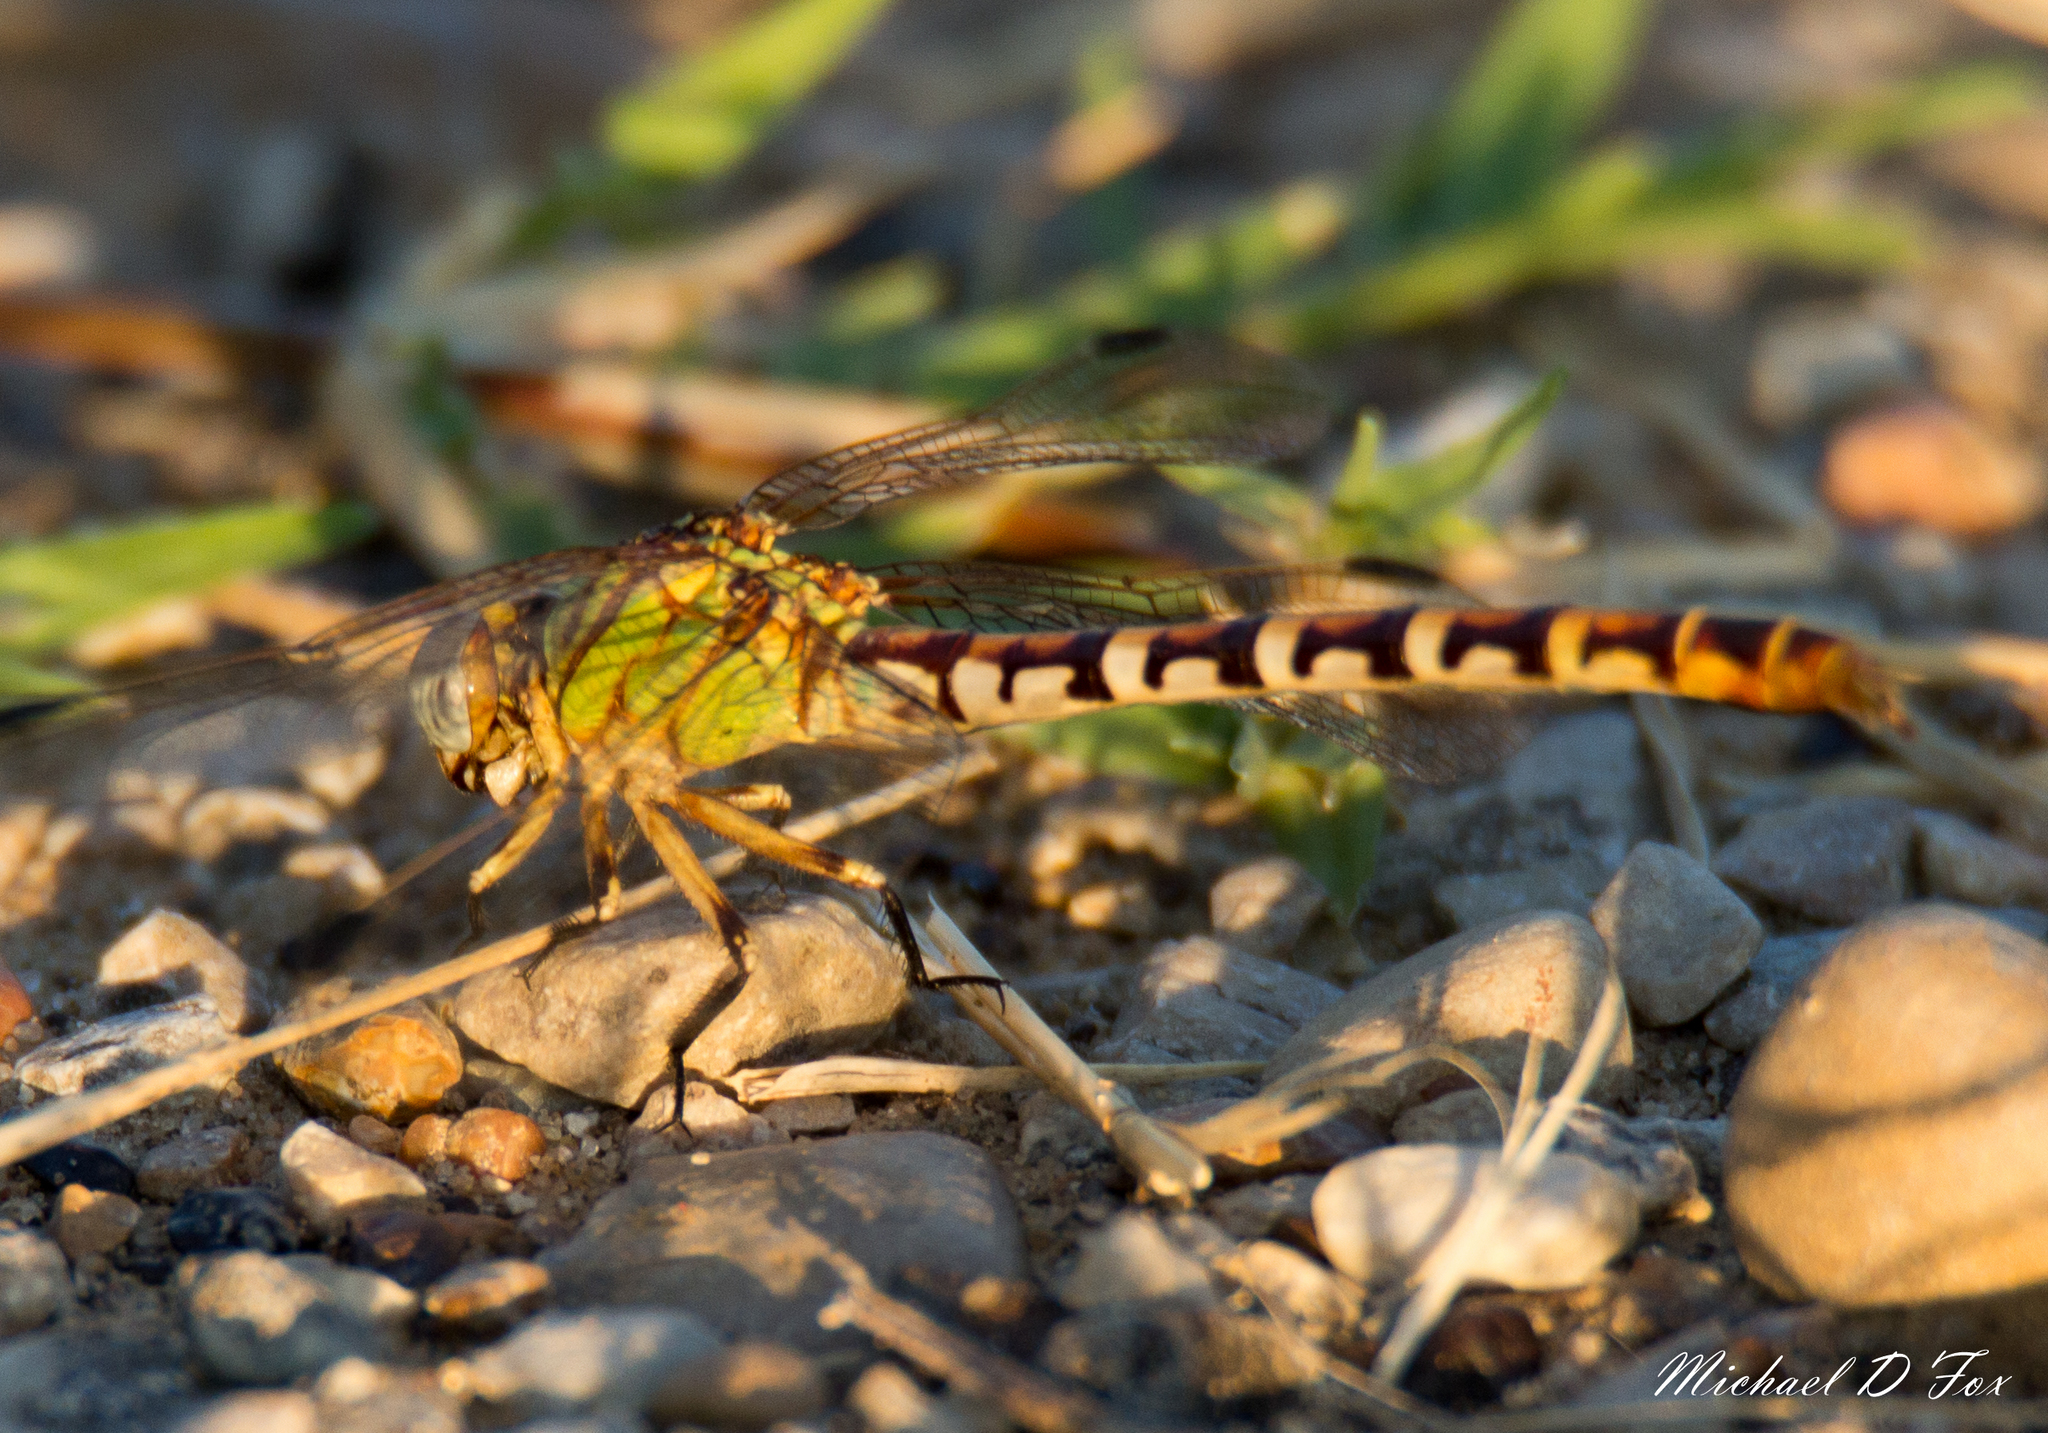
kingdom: Animalia
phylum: Arthropoda
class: Insecta
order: Odonata
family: Gomphidae
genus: Erpetogomphus
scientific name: Erpetogomphus designatus
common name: Eastern ringtail
